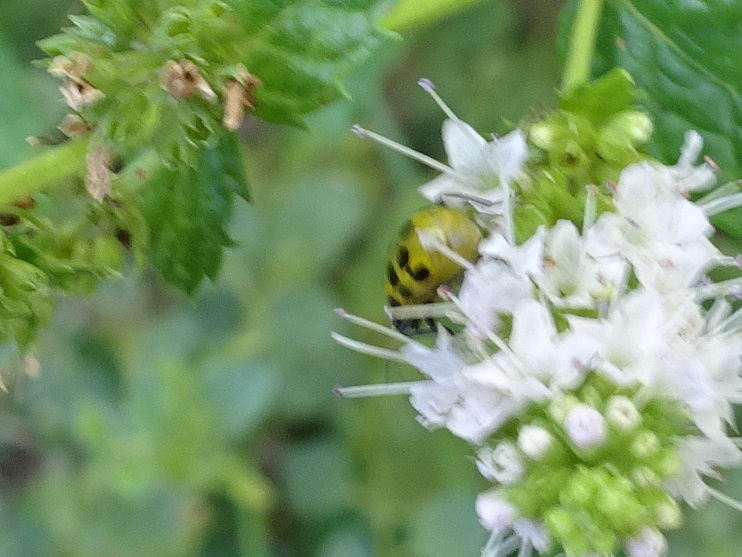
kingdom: Animalia
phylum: Arthropoda
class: Insecta
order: Coleoptera
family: Chrysomelidae
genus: Diabrotica
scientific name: Diabrotica undecimpunctata
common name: Spotted cucumber beetle
